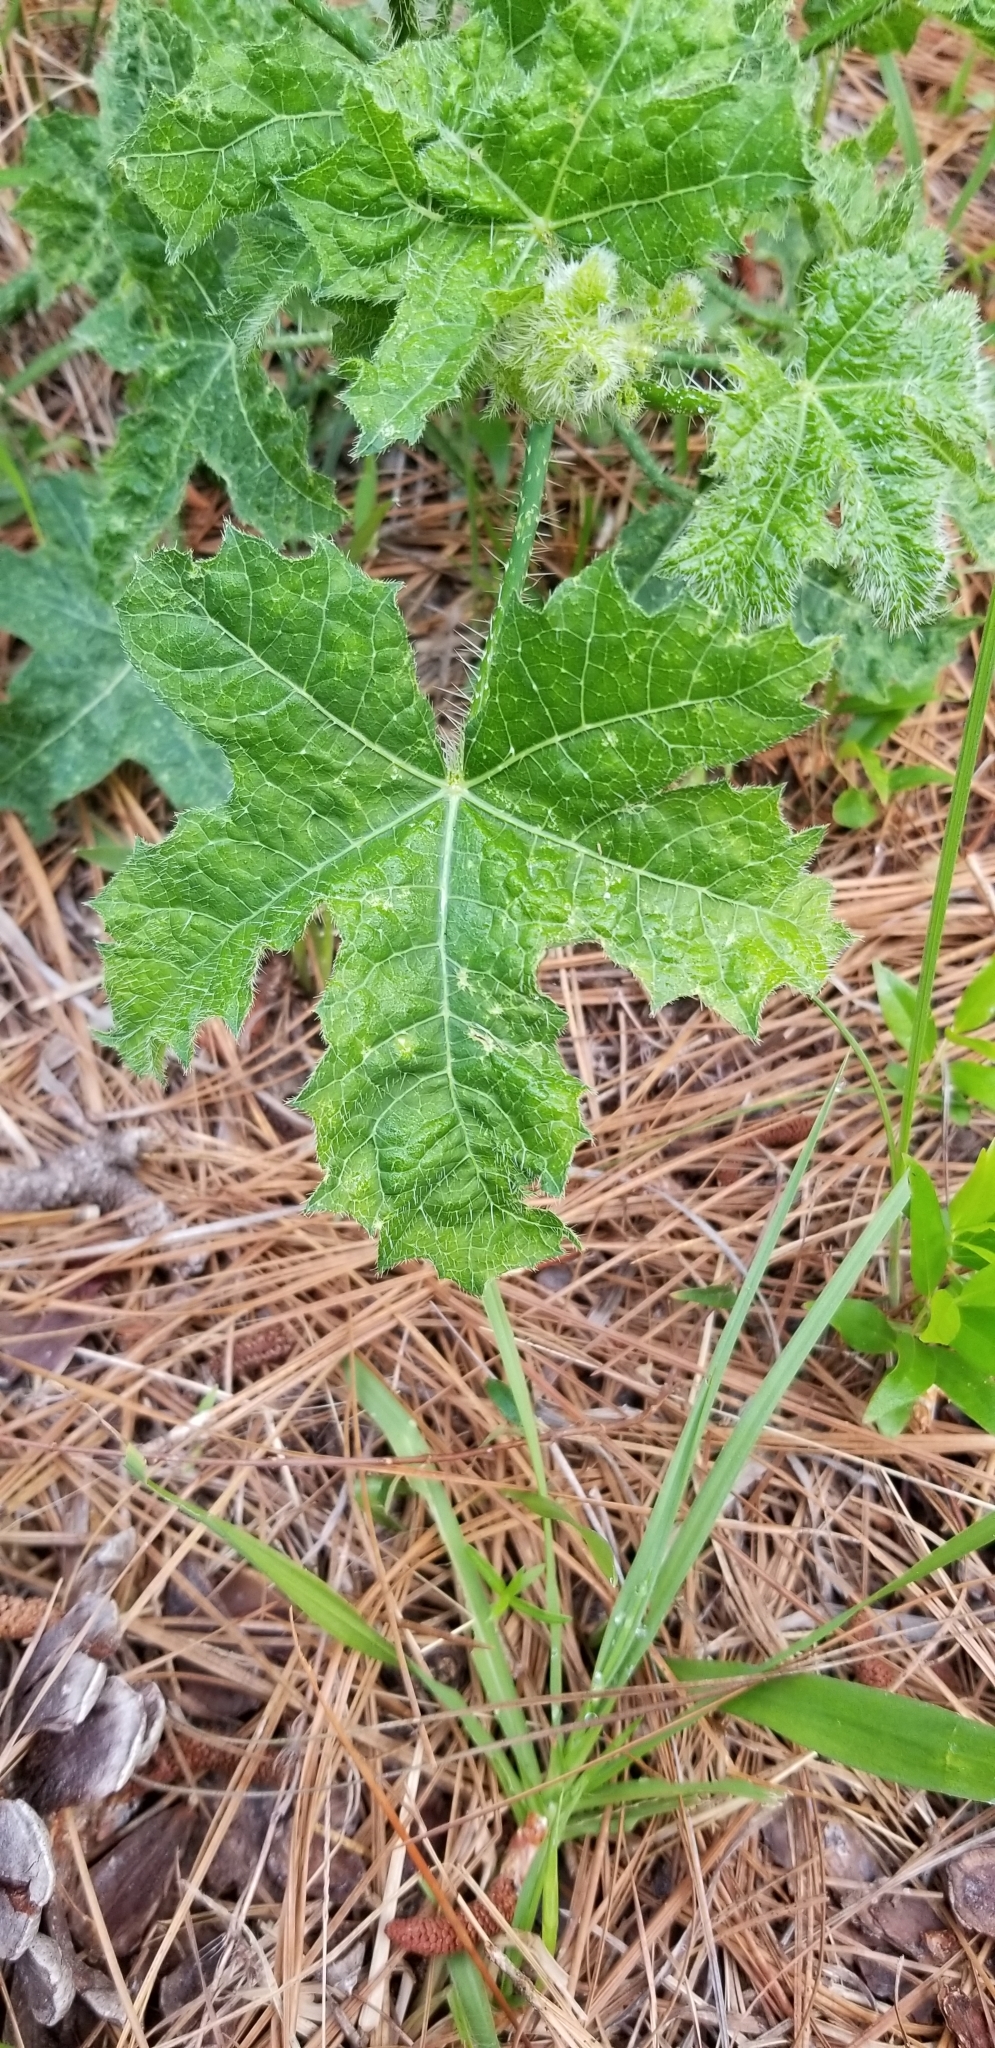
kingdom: Plantae
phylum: Tracheophyta
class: Magnoliopsida
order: Malpighiales
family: Euphorbiaceae
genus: Cnidoscolus
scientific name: Cnidoscolus texanus
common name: Texas bull-nettle
